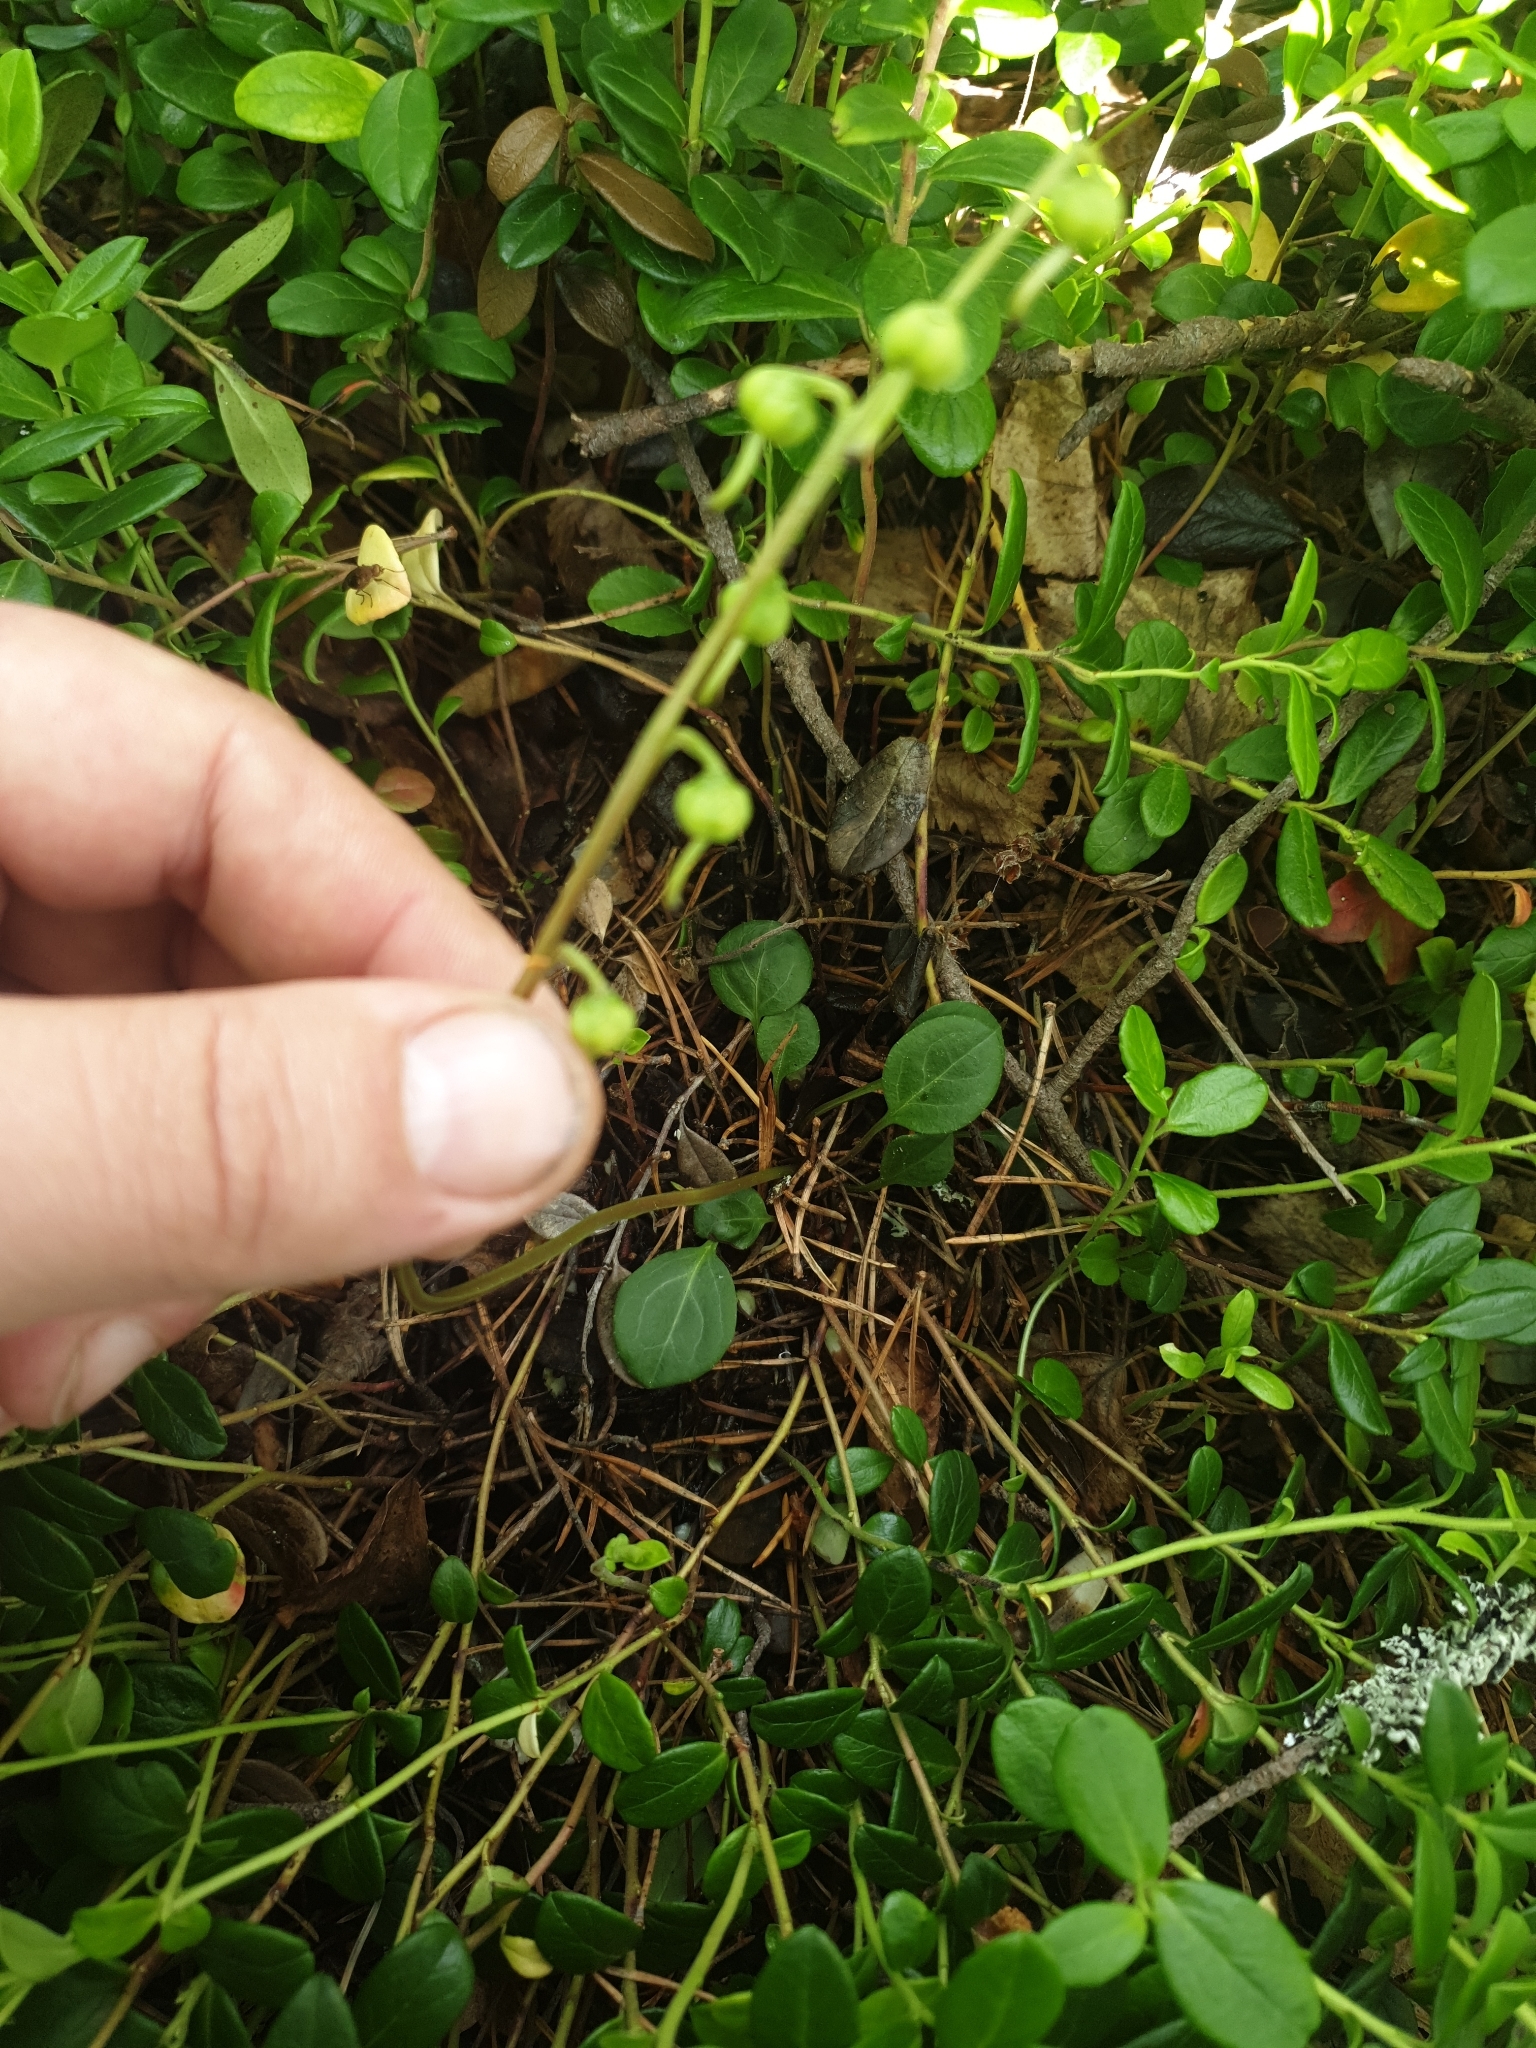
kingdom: Plantae
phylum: Tracheophyta
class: Magnoliopsida
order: Ericales
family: Ericaceae
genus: Pyrola
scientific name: Pyrola chlorantha
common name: Green wintergreen
